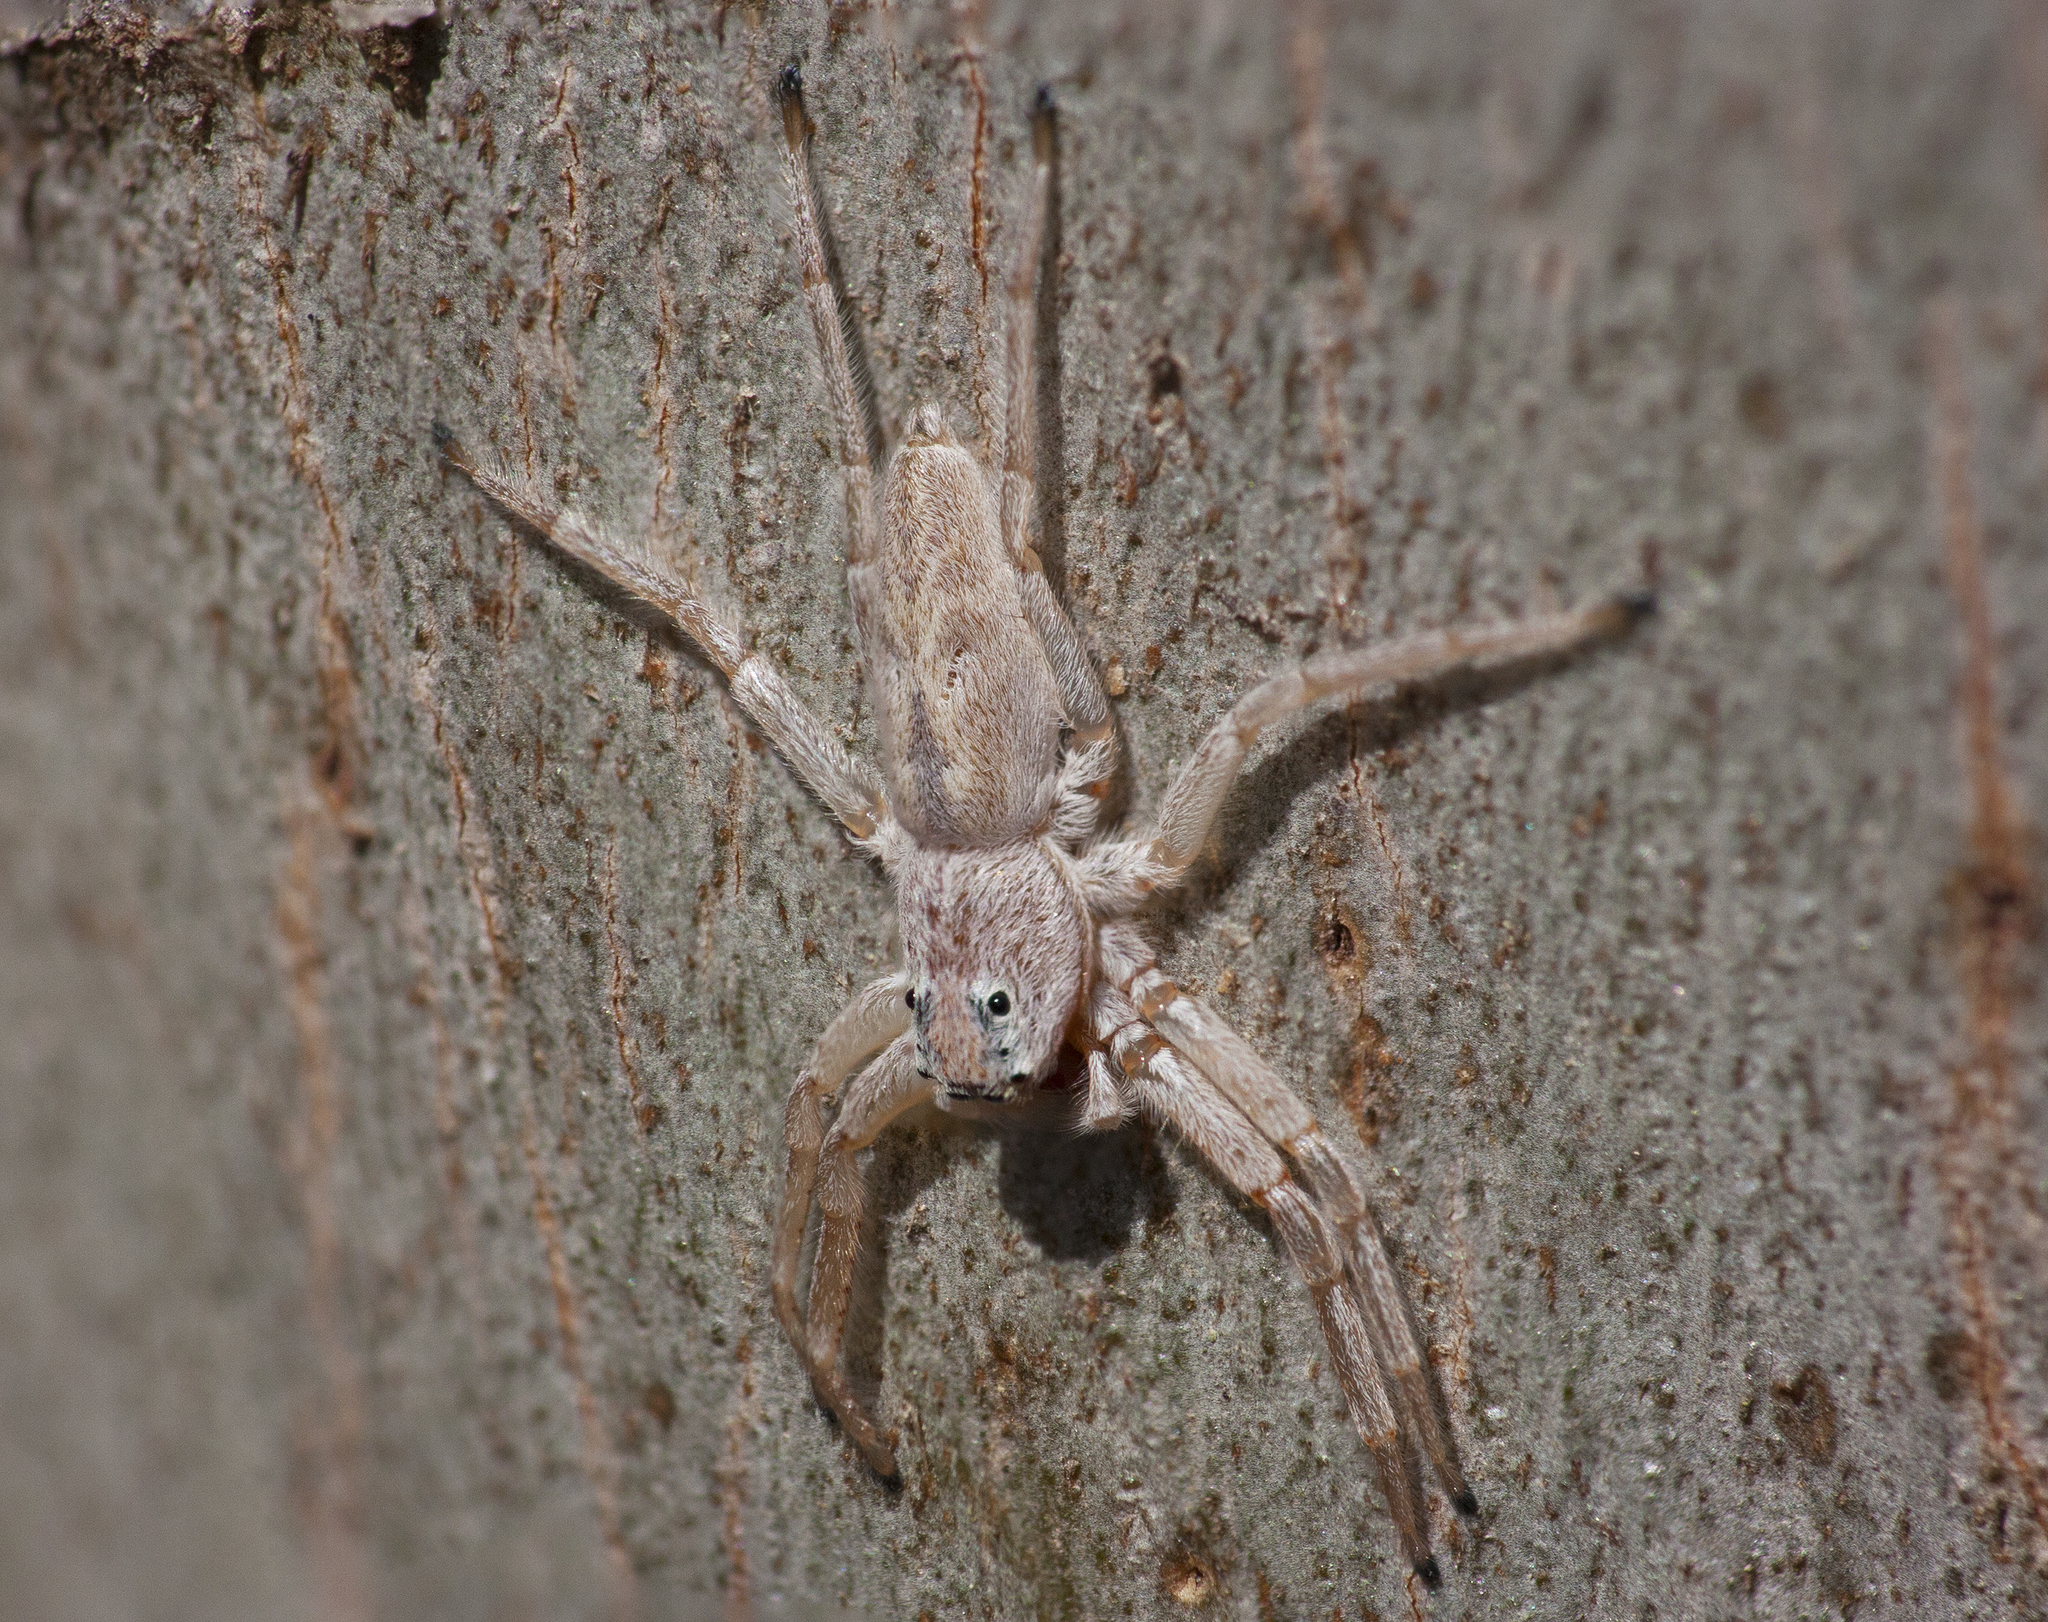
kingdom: Animalia
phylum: Arthropoda
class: Arachnida
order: Araneae
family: Salticidae
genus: Arasia
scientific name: Arasia mollicoma
